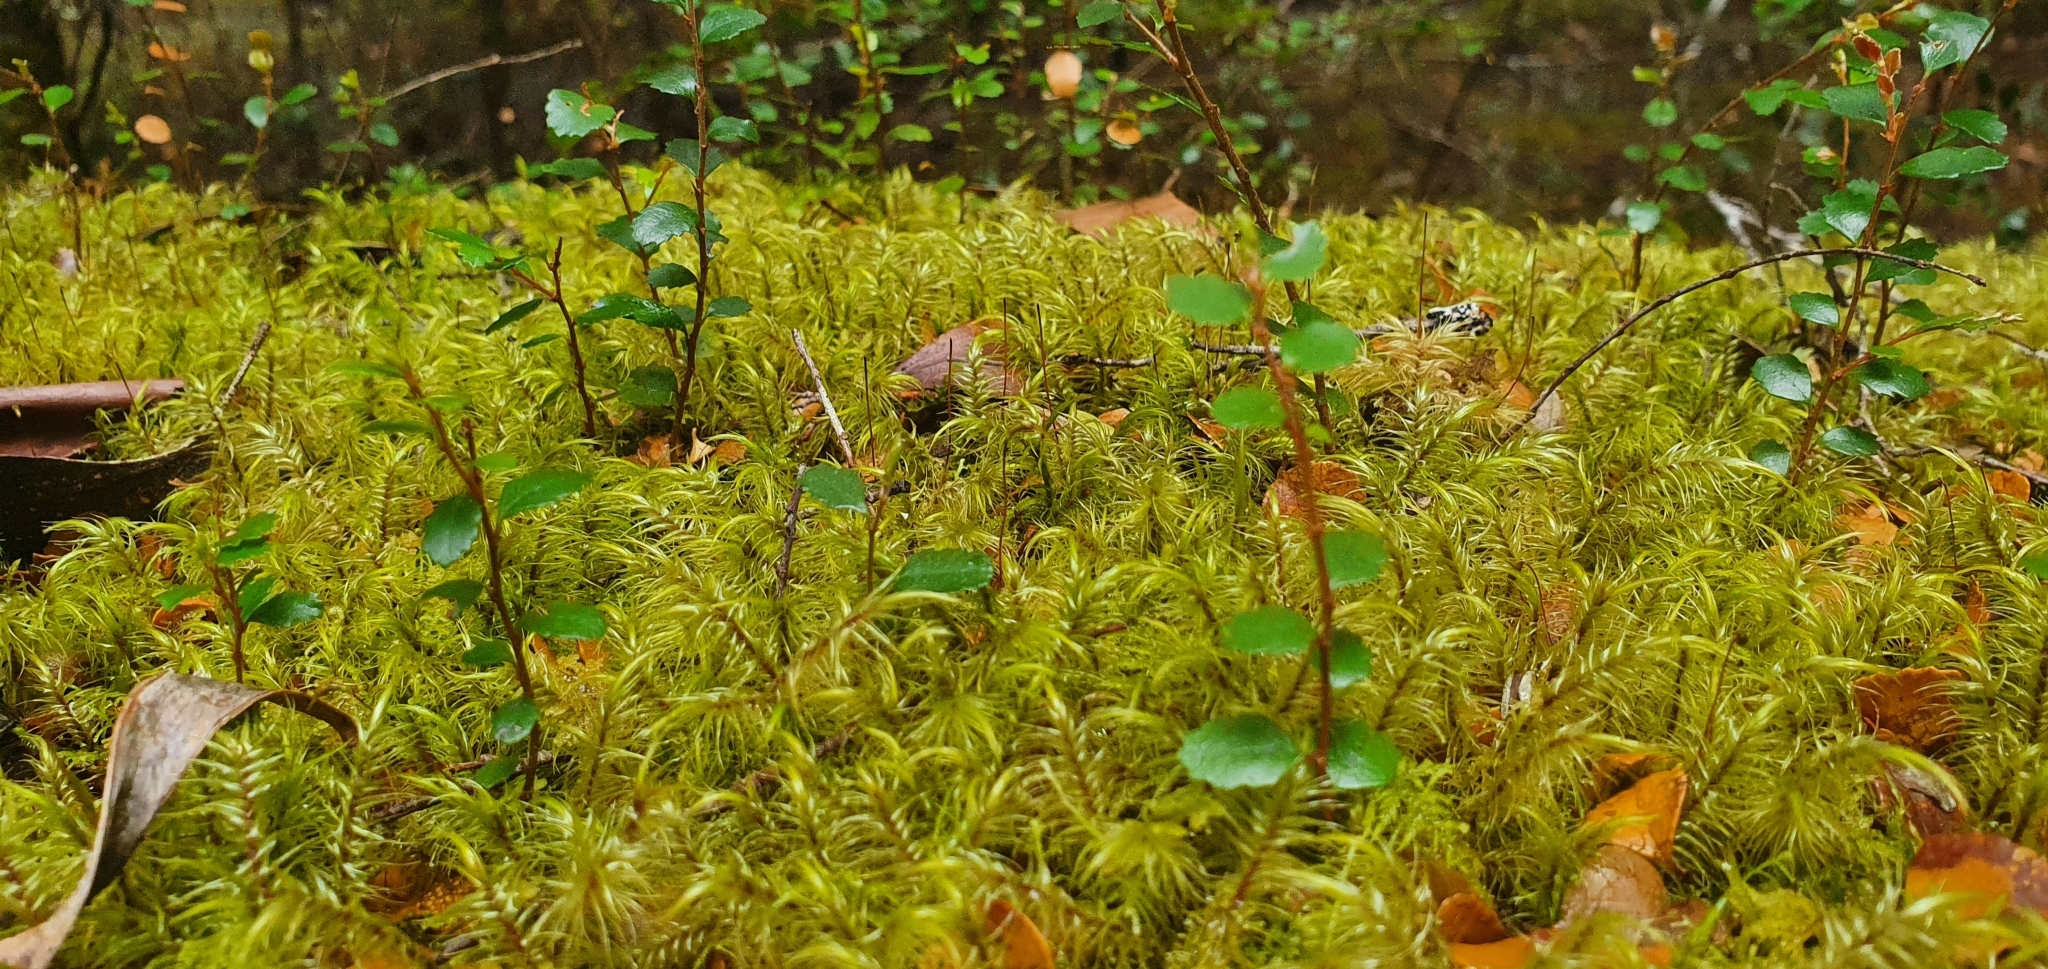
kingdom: Plantae
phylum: Tracheophyta
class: Magnoliopsida
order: Fagales
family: Nothofagaceae
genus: Nothofagus
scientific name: Nothofagus cunninghamii
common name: Myrtle beech
